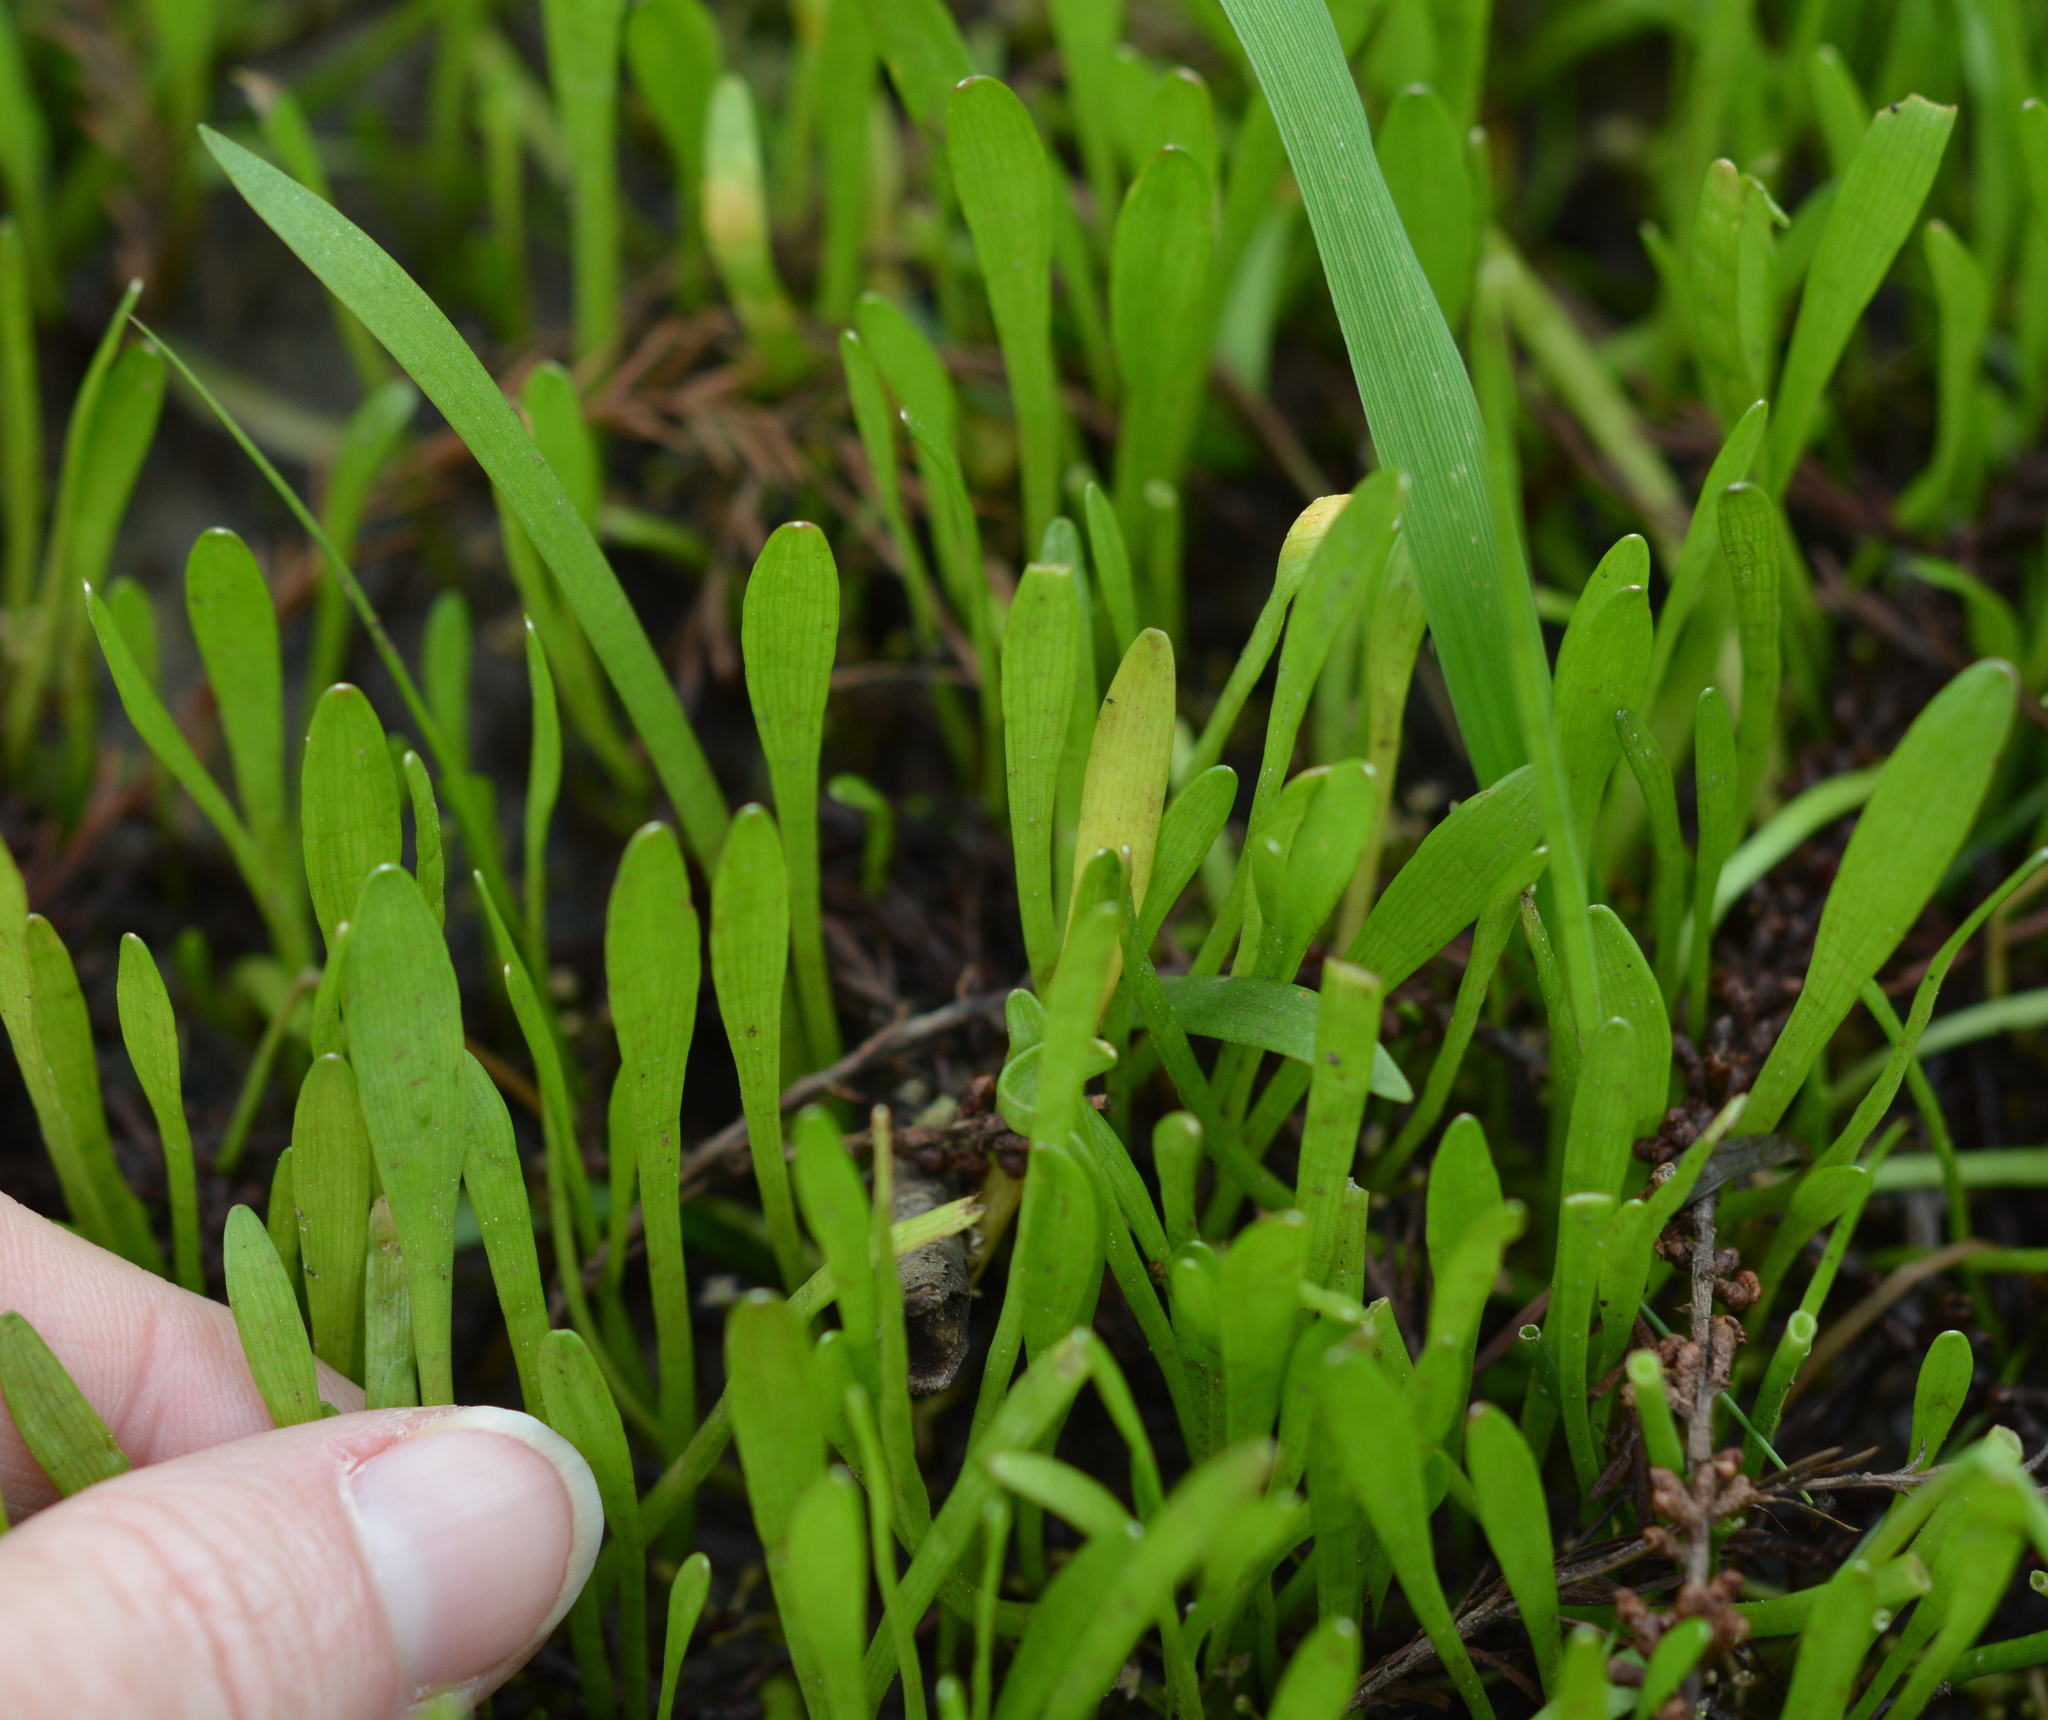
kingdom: Plantae
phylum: Tracheophyta
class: Magnoliopsida
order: Apiales
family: Apiaceae
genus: Lilaeopsis
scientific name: Lilaeopsis carolinensis
